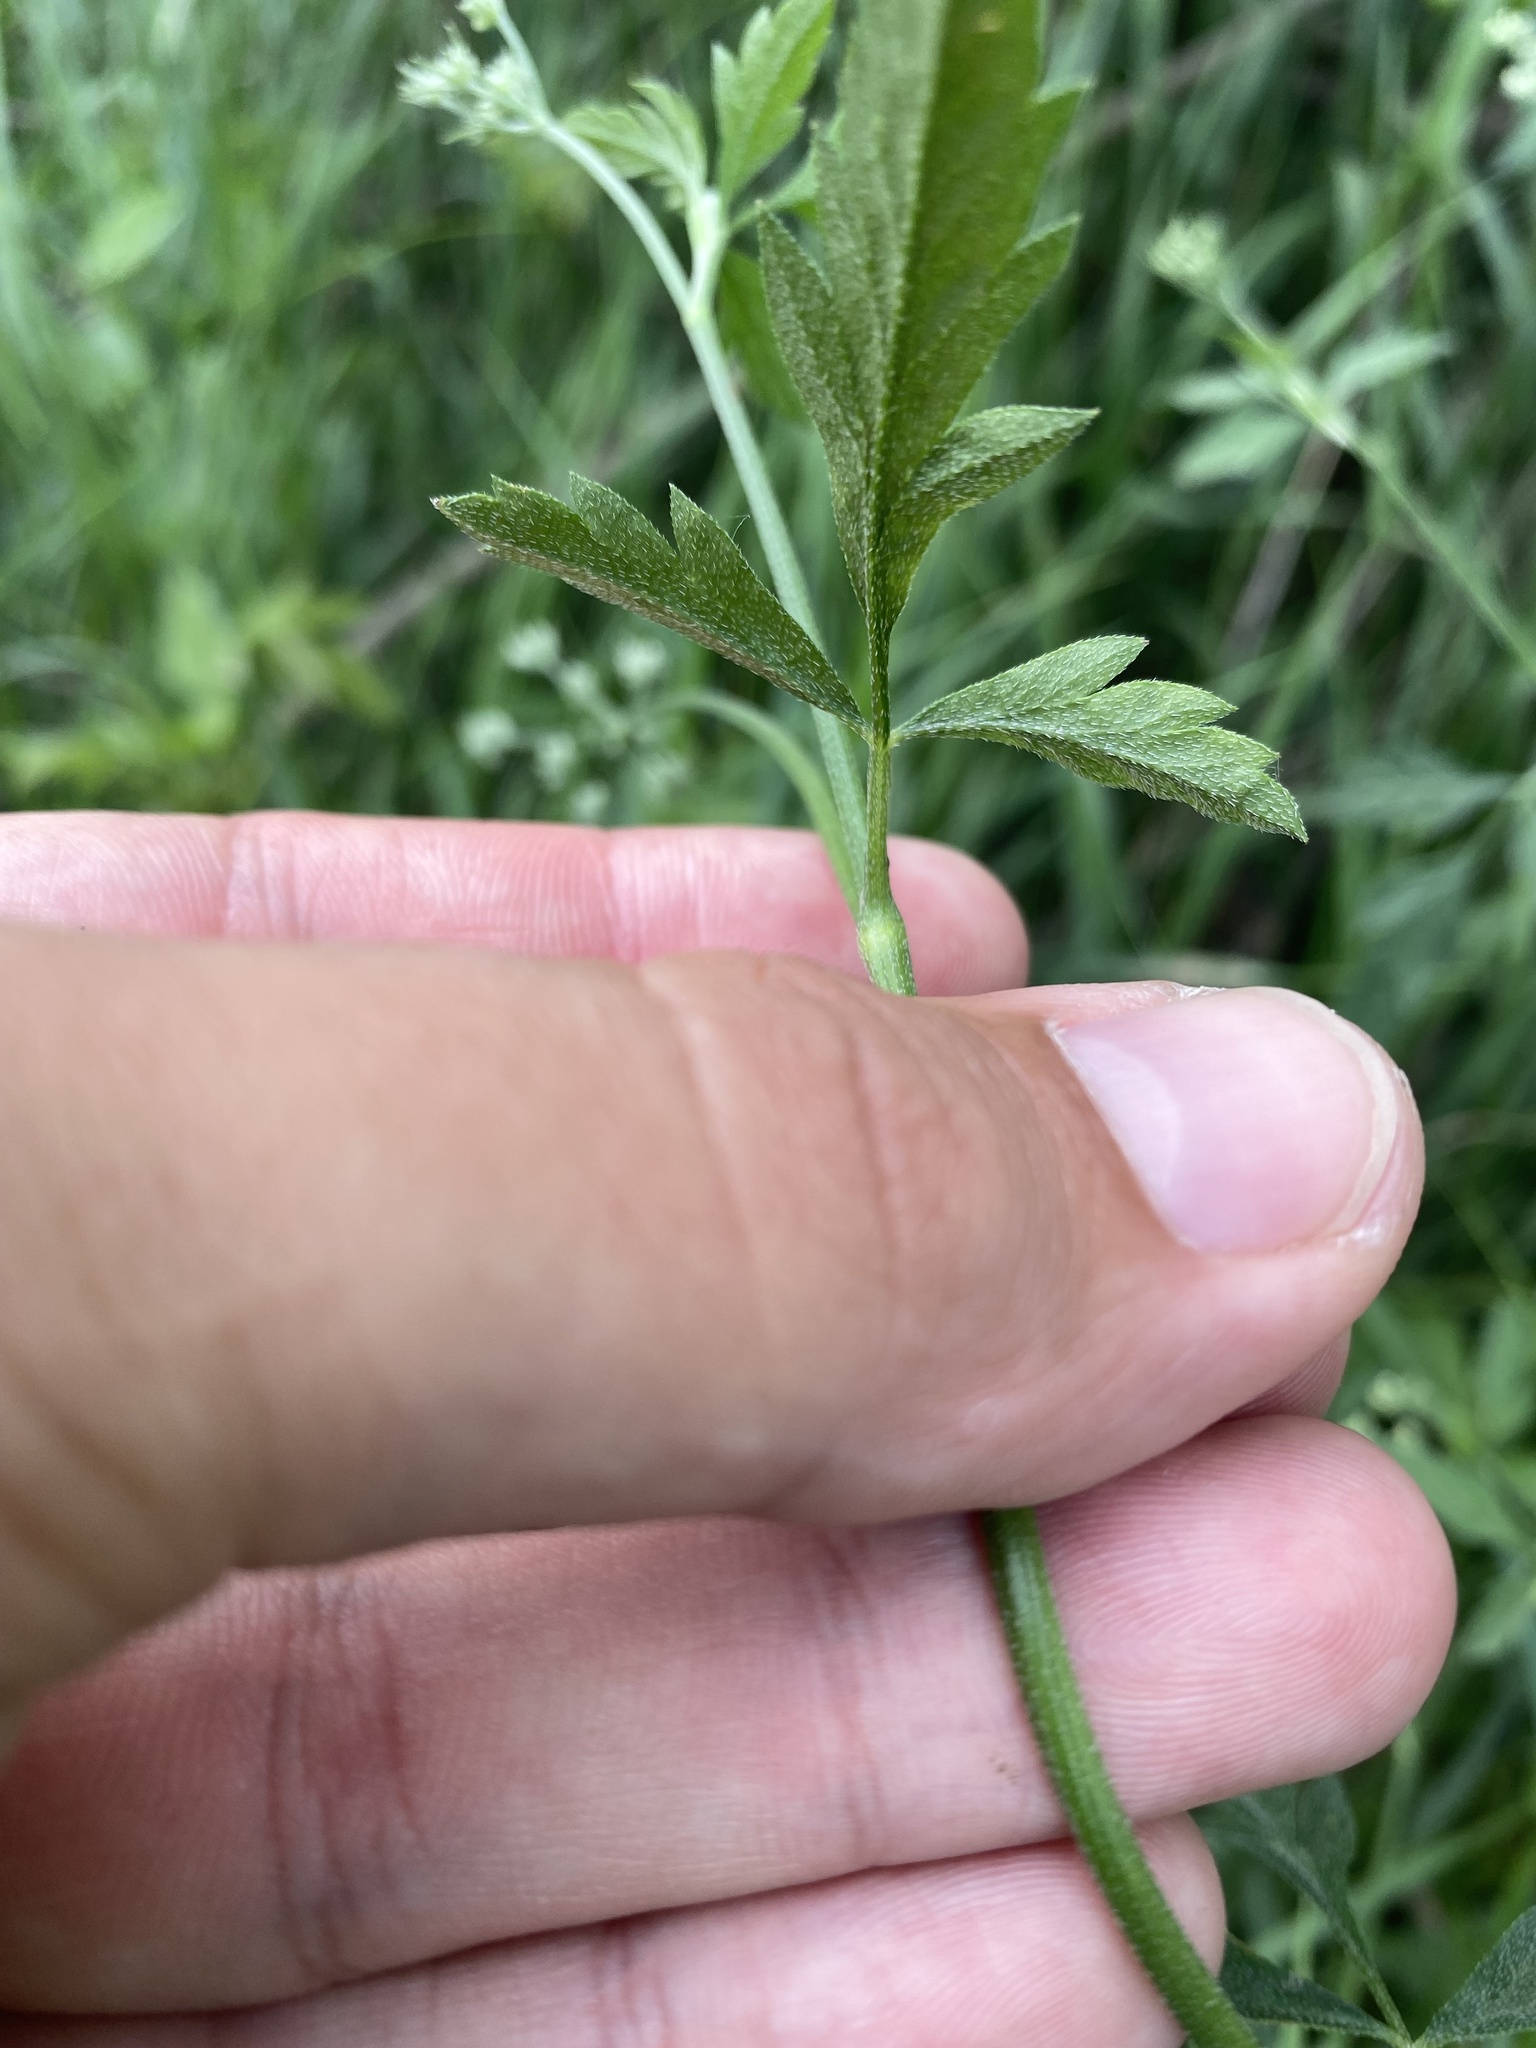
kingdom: Plantae
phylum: Tracheophyta
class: Magnoliopsida
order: Apiales
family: Apiaceae
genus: Torilis
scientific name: Torilis arvensis
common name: Spreading hedge-parsley
